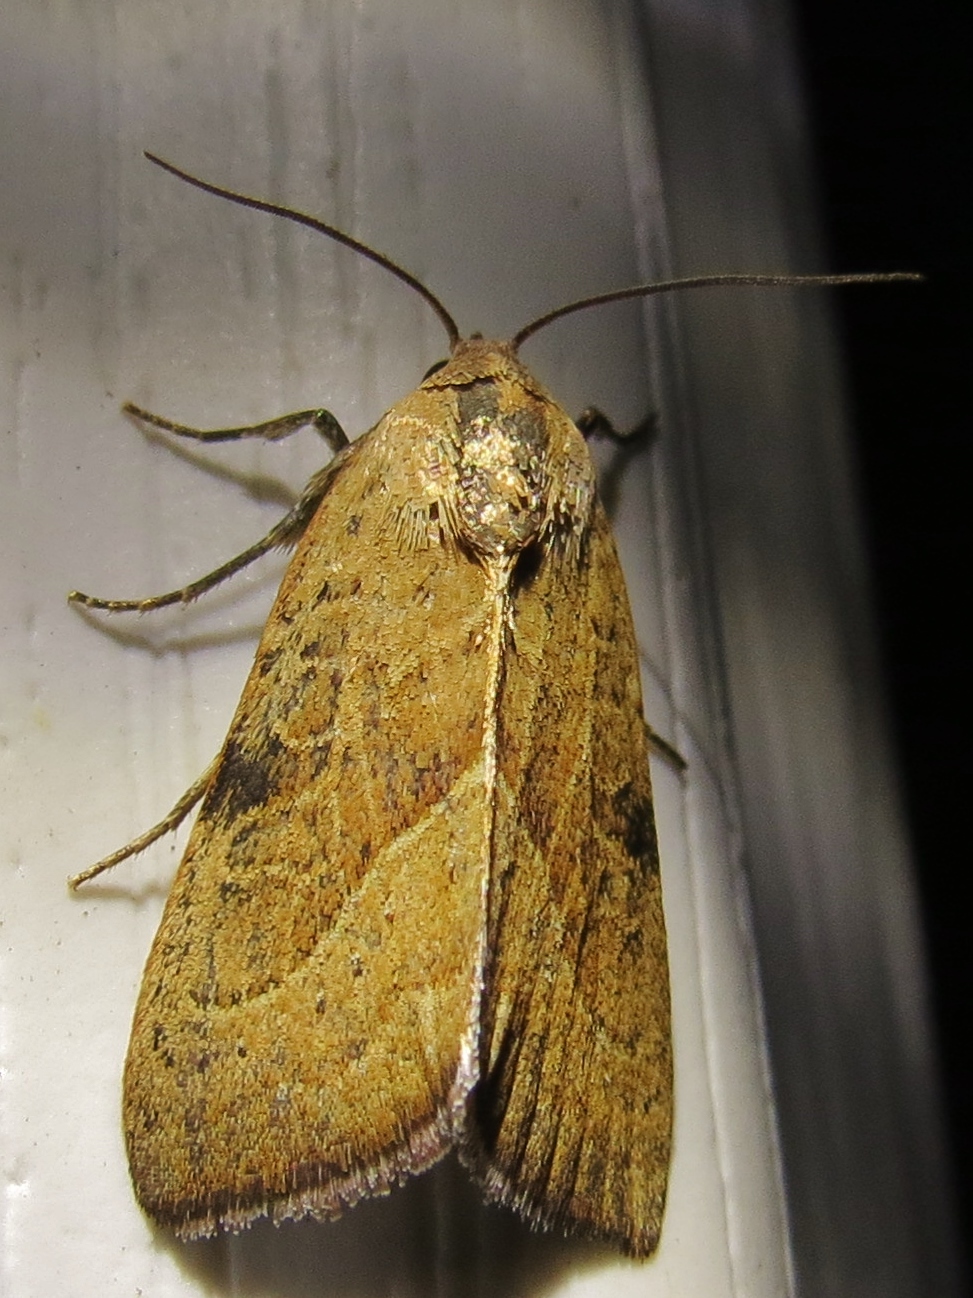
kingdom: Animalia
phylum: Arthropoda
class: Insecta
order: Lepidoptera
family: Noctuidae
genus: Galgula
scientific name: Galgula partita
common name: Wedgeling
